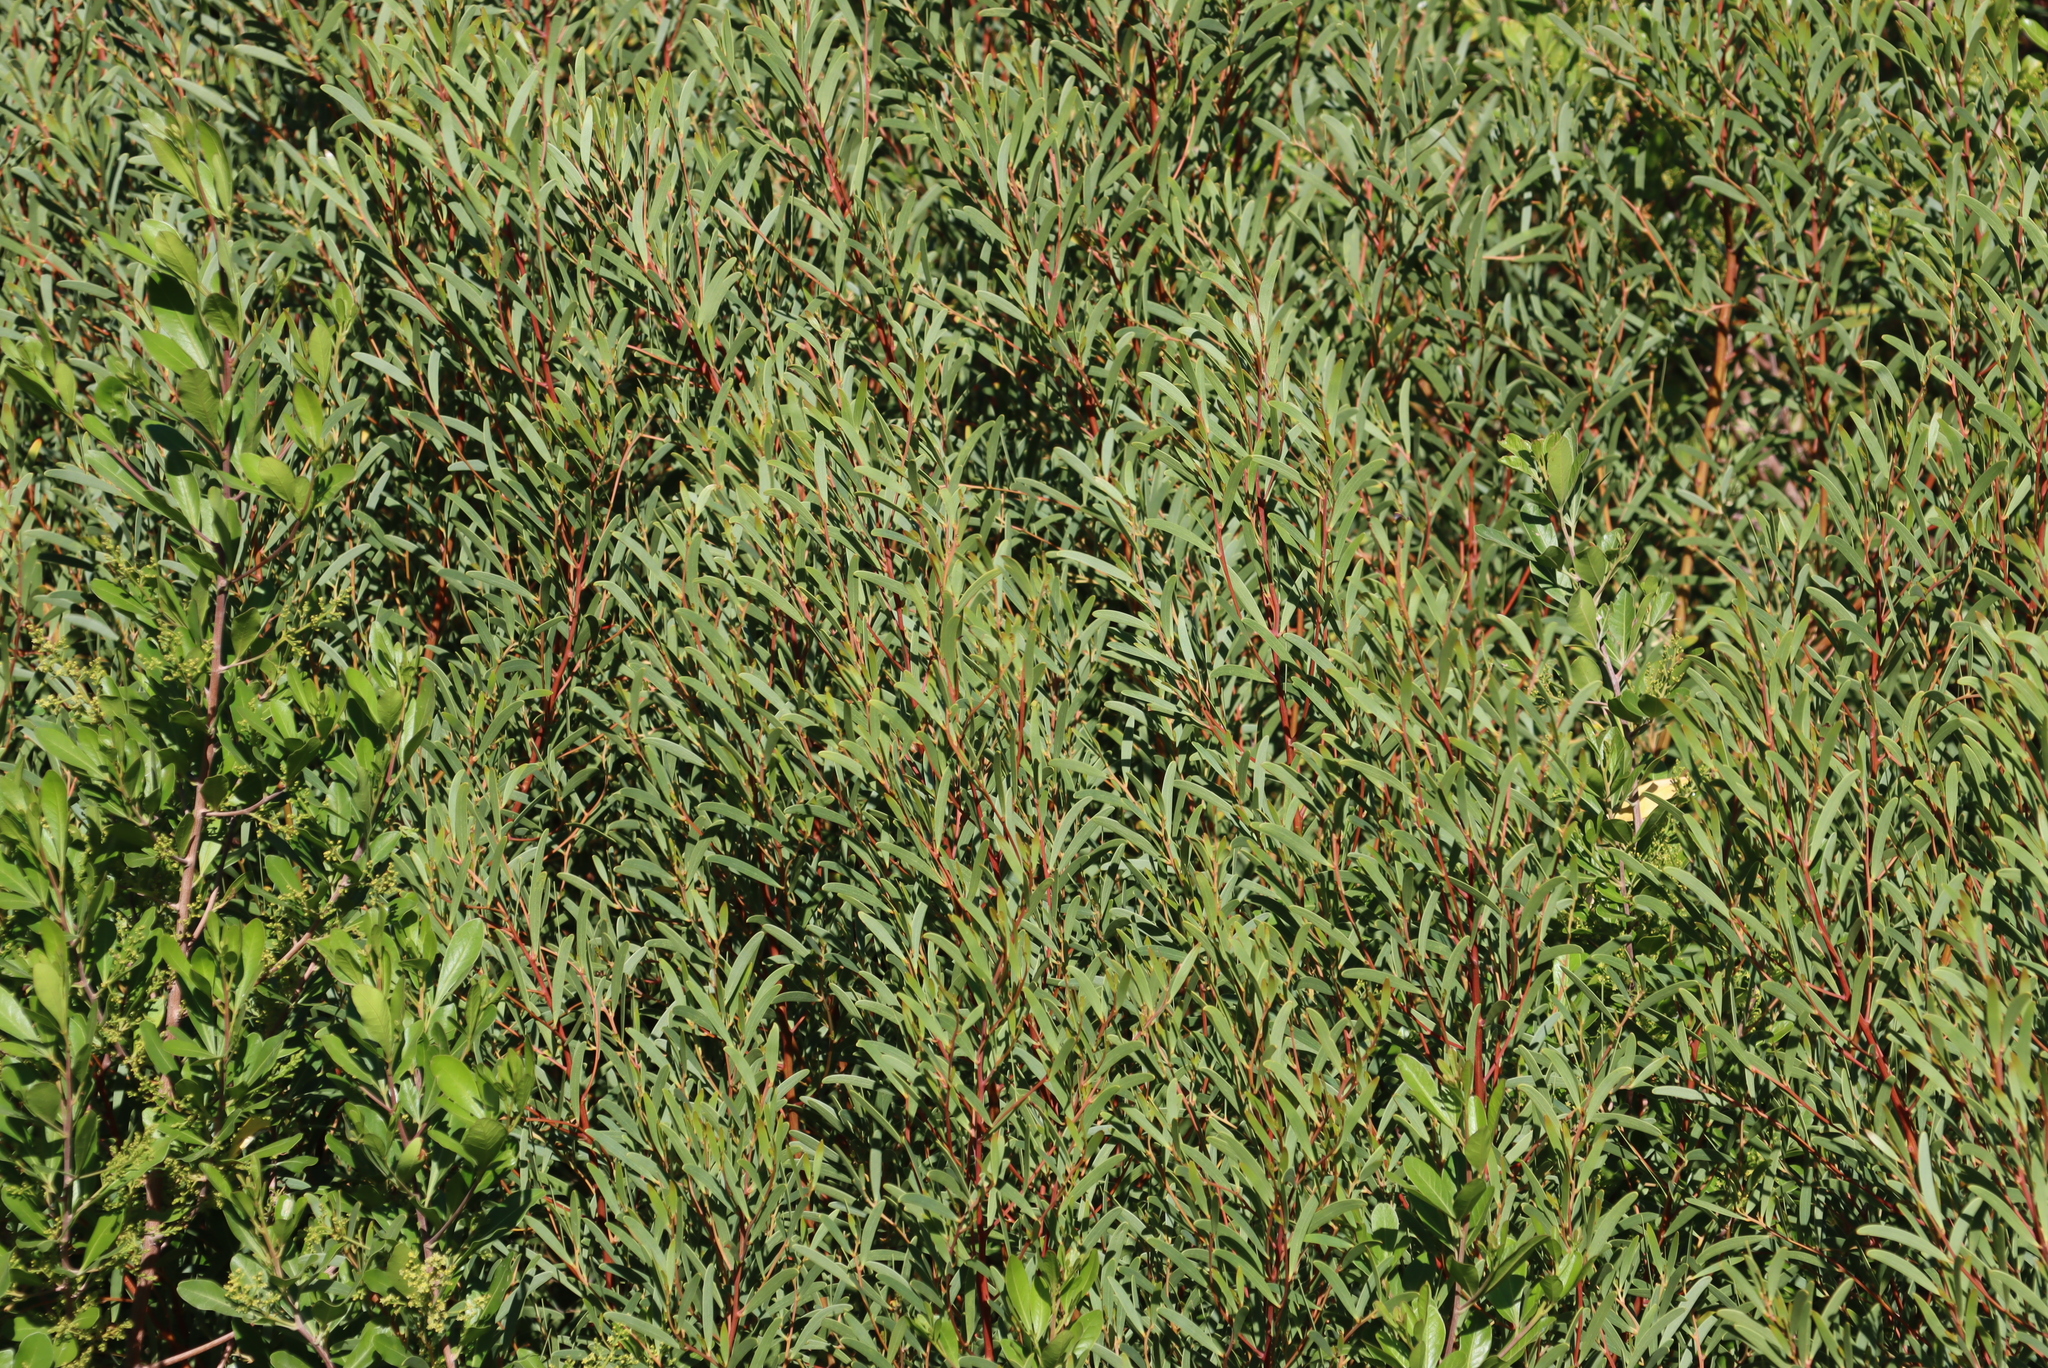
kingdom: Plantae
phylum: Tracheophyta
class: Magnoliopsida
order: Fabales
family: Fabaceae
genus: Acacia
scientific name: Acacia cyclops
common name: Coastal wattle
